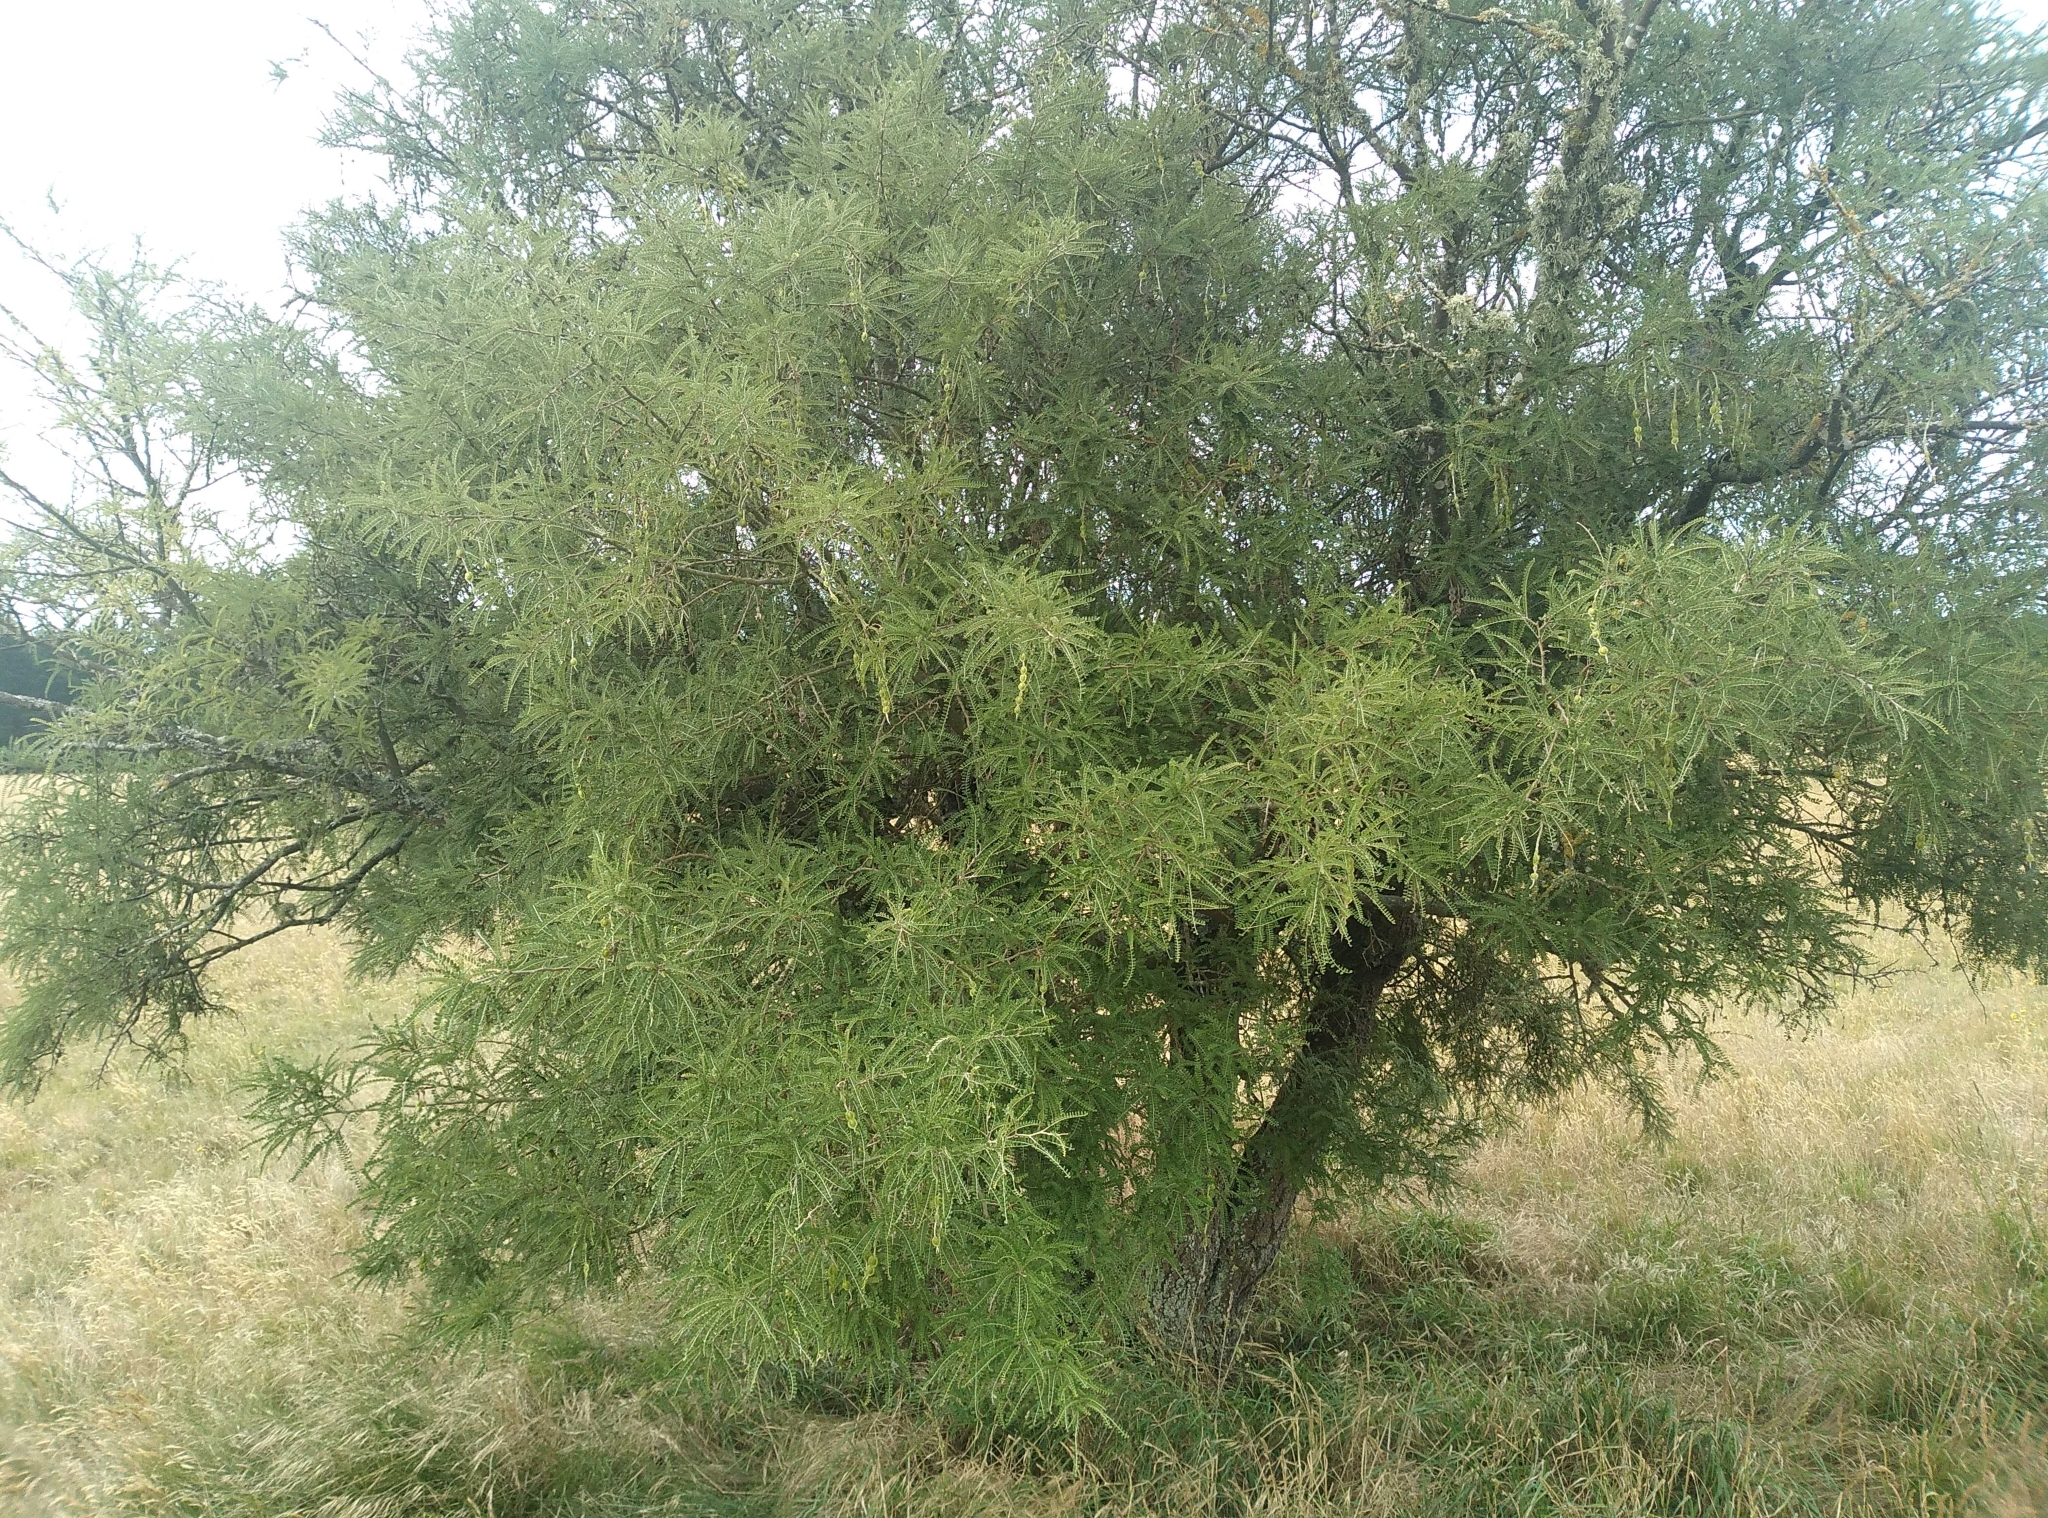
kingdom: Plantae
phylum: Tracheophyta
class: Magnoliopsida
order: Fabales
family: Fabaceae
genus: Sophora
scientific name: Sophora microphylla
